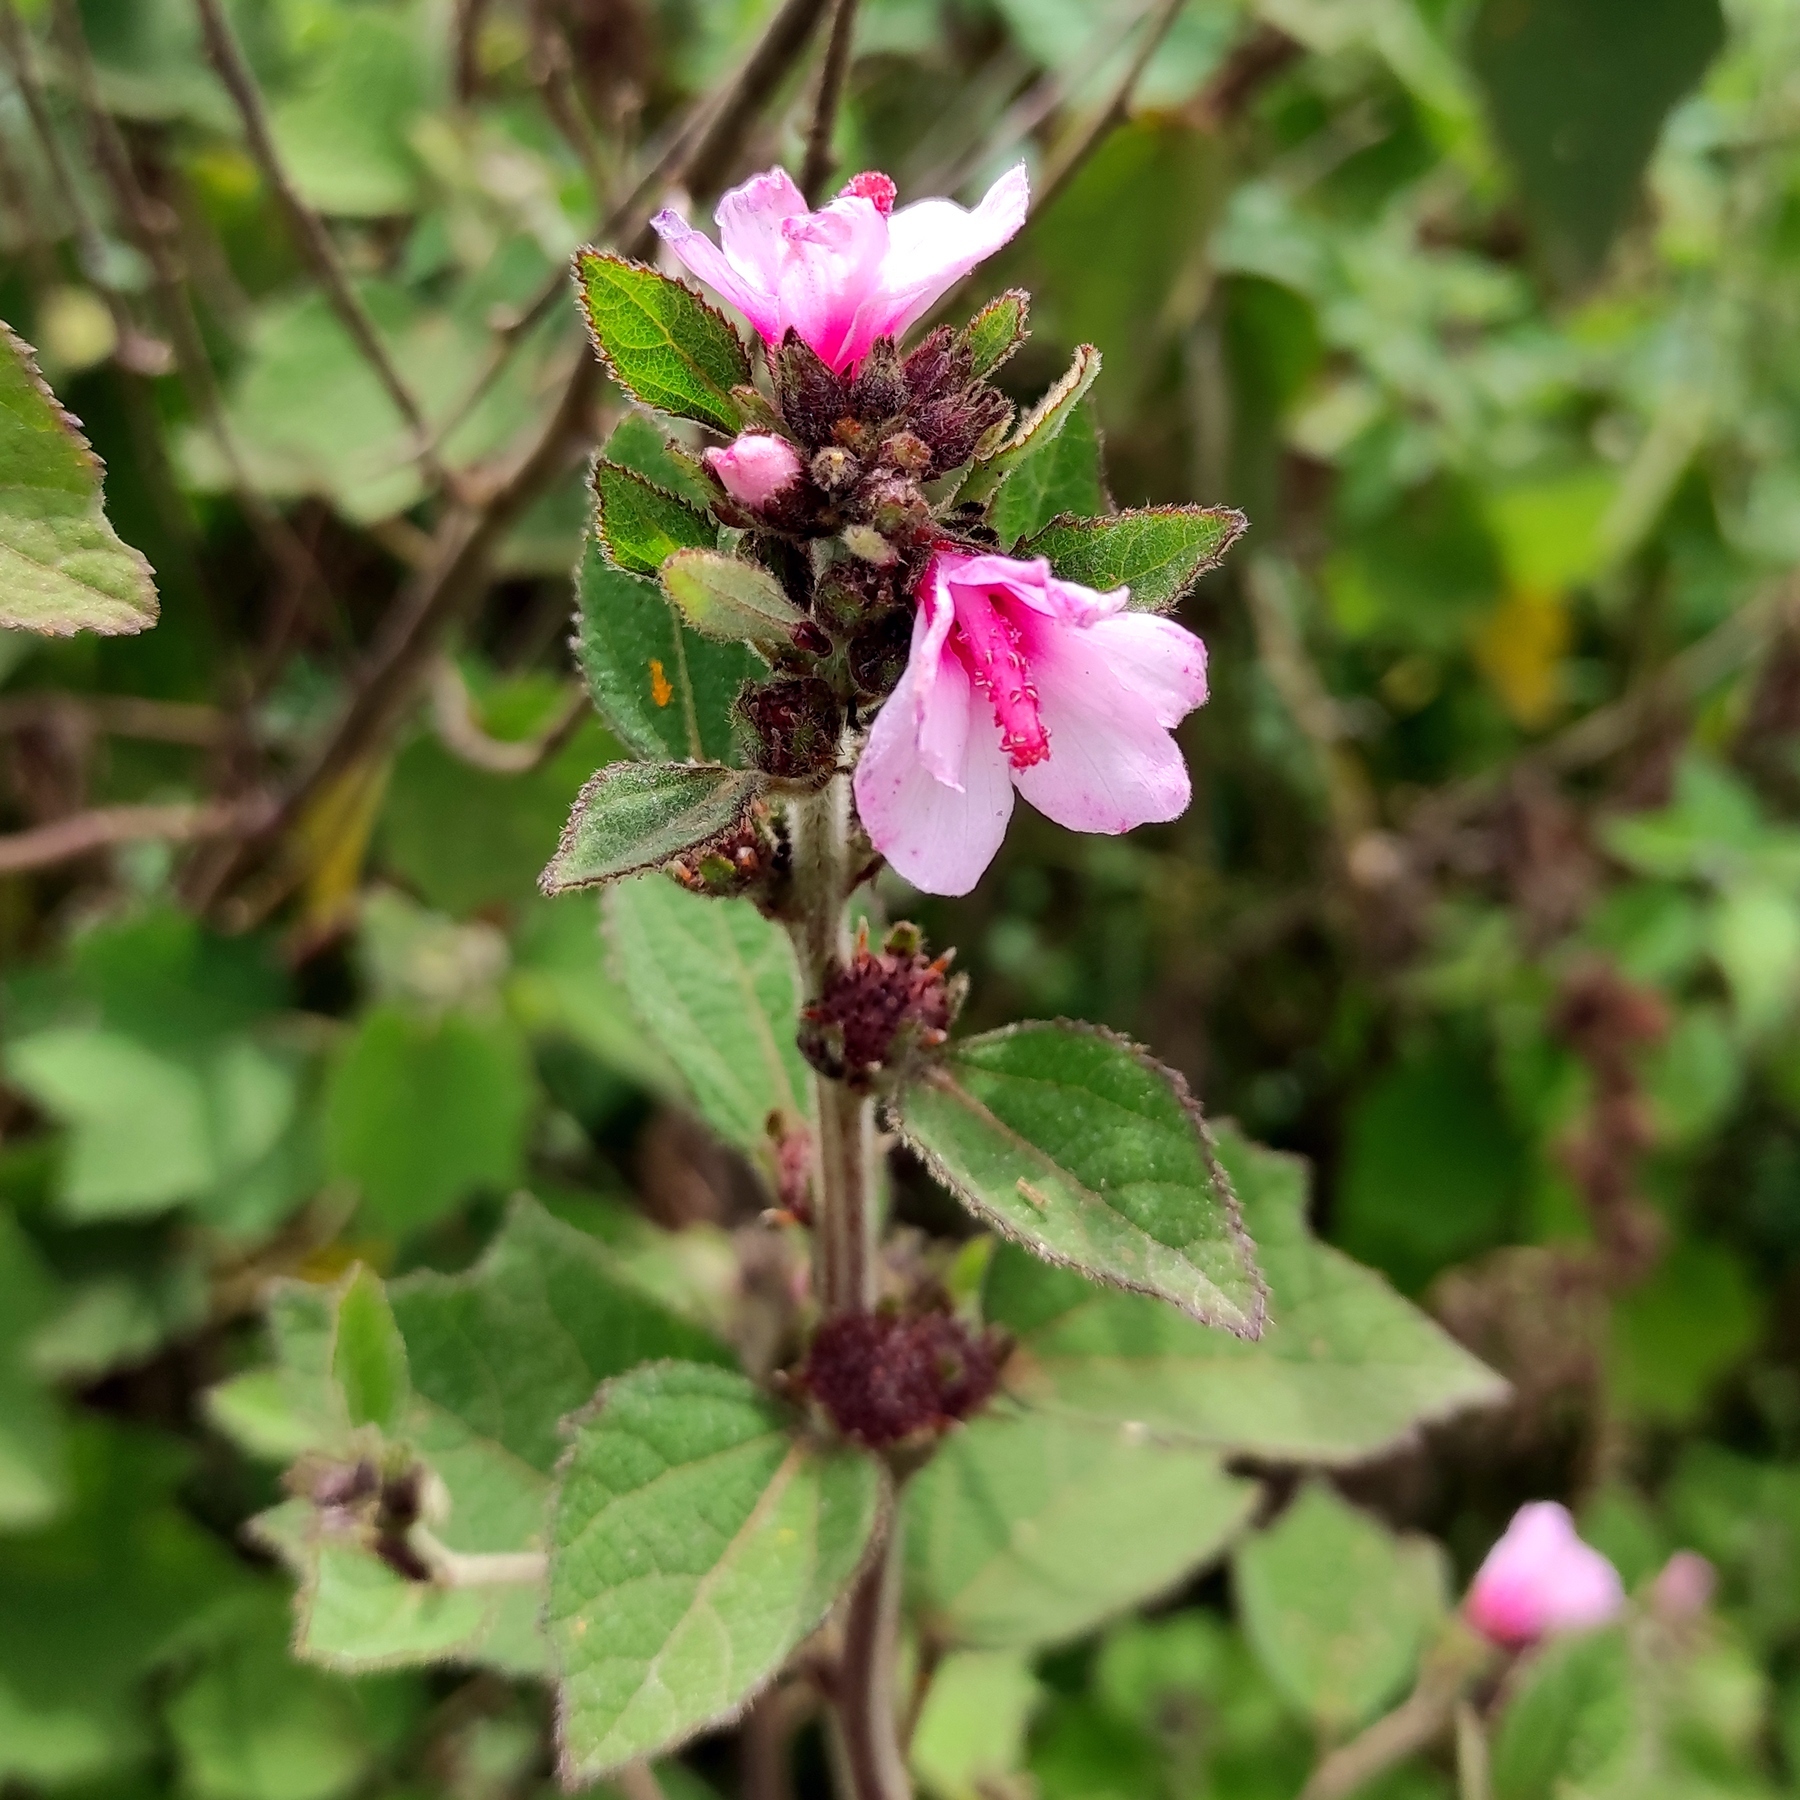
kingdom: Plantae
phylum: Tracheophyta
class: Magnoliopsida
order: Malvales
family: Malvaceae
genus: Urena
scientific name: Urena lobata
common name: Caesarweed
